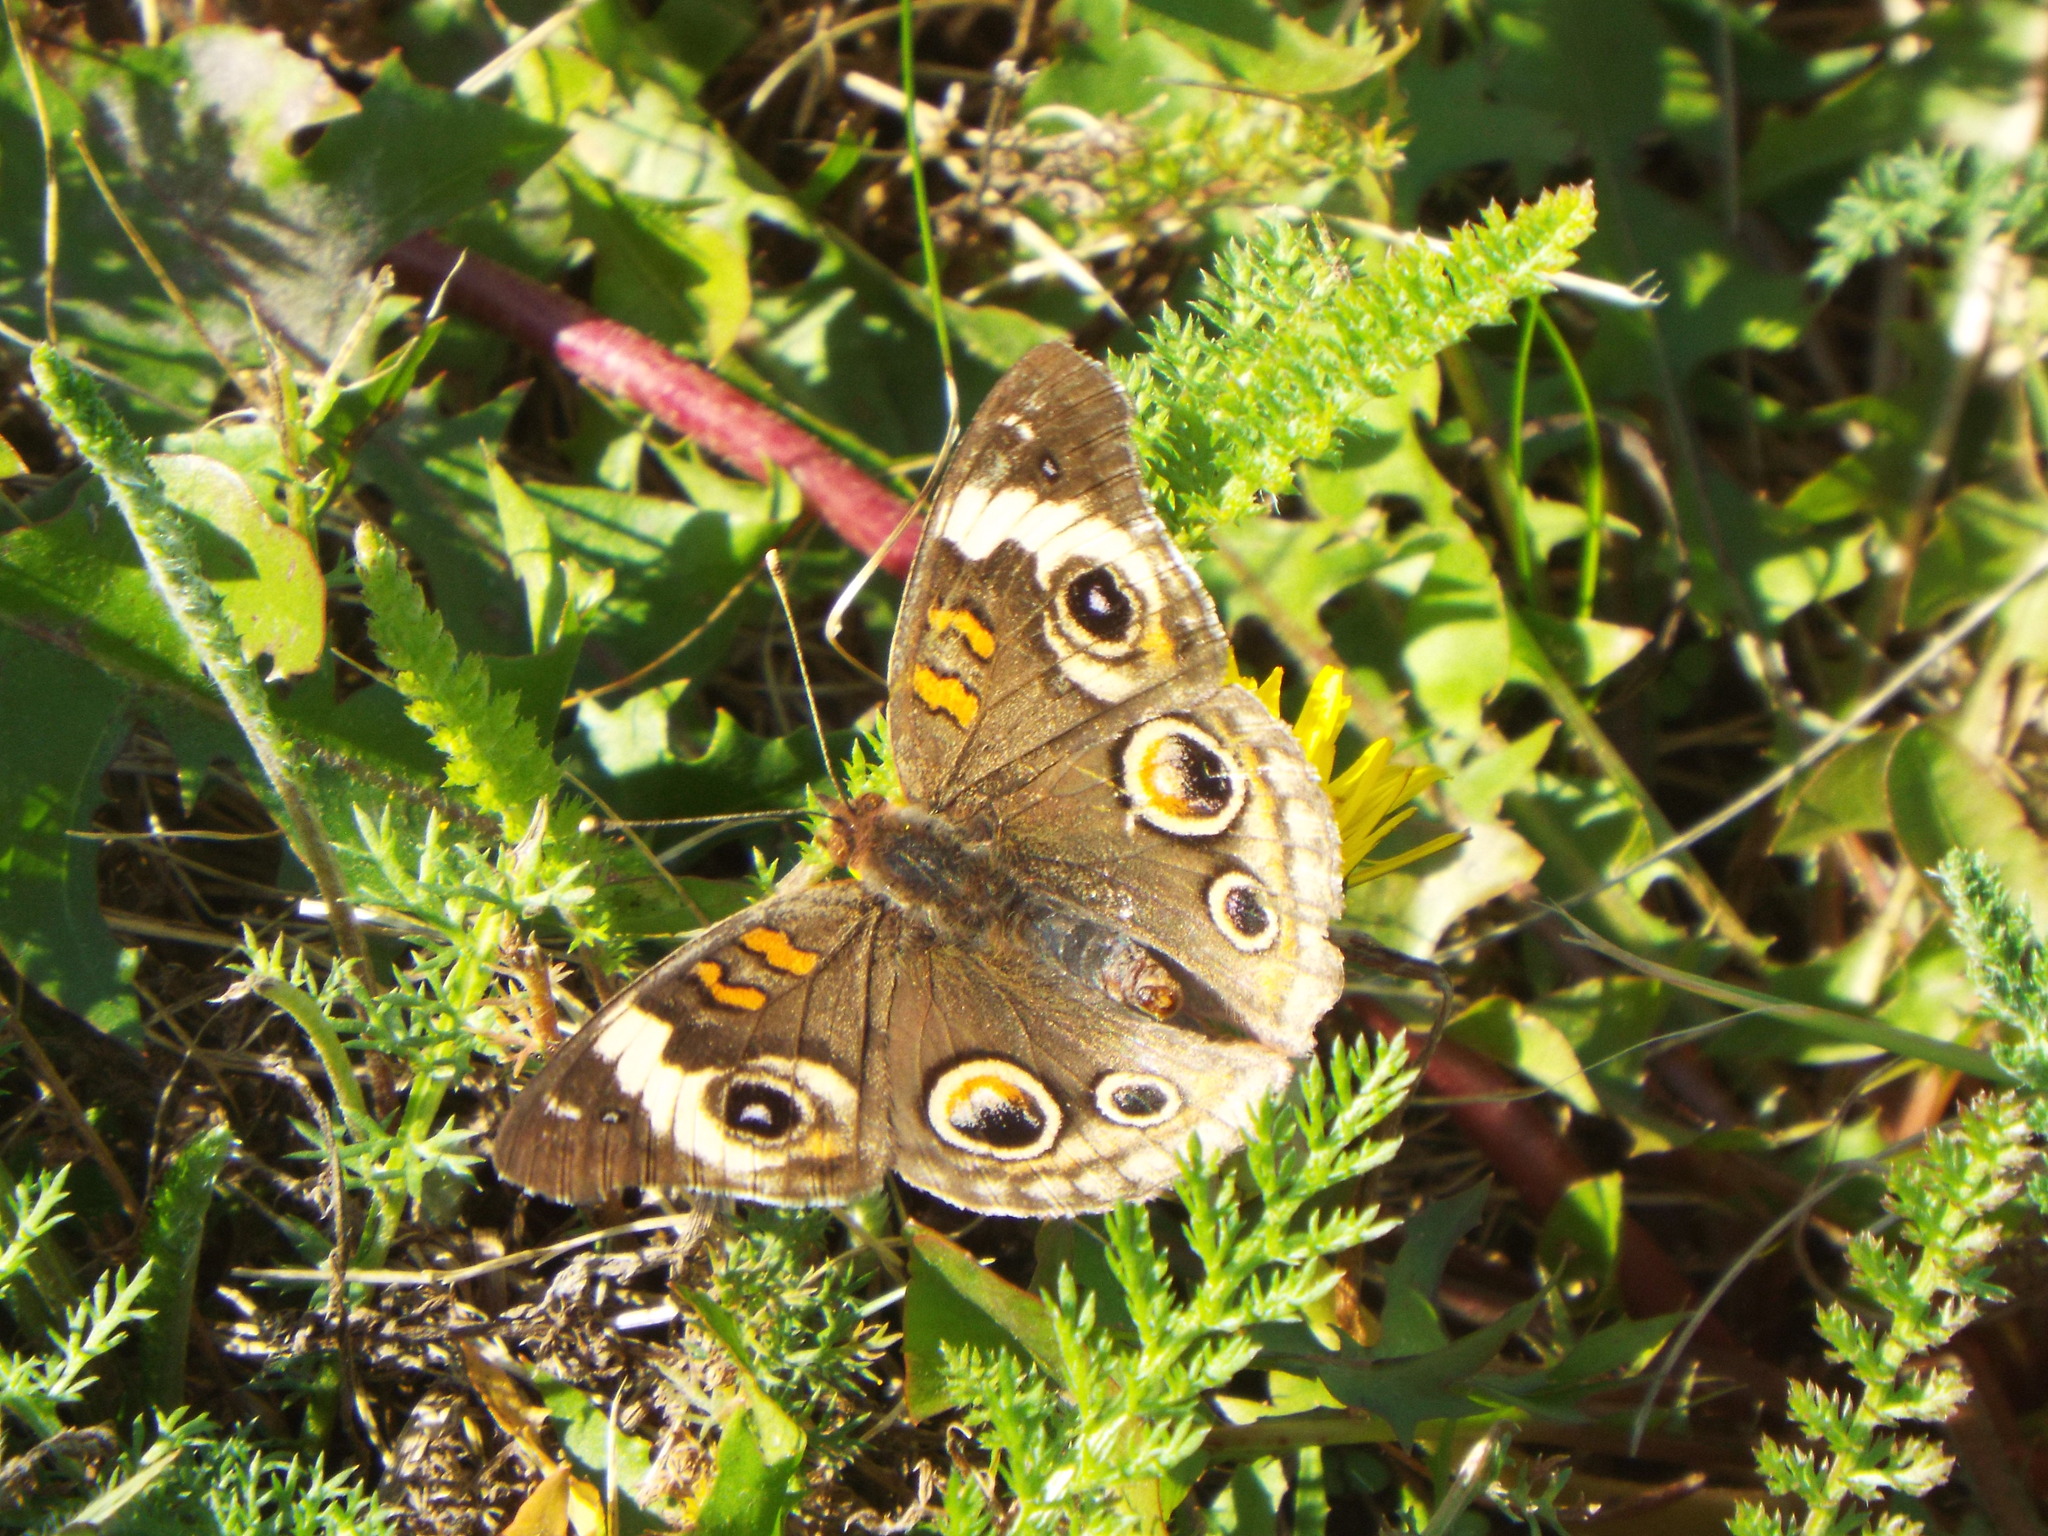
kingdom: Animalia
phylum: Arthropoda
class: Insecta
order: Lepidoptera
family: Nymphalidae
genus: Junonia
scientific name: Junonia coenia
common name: Common buckeye
